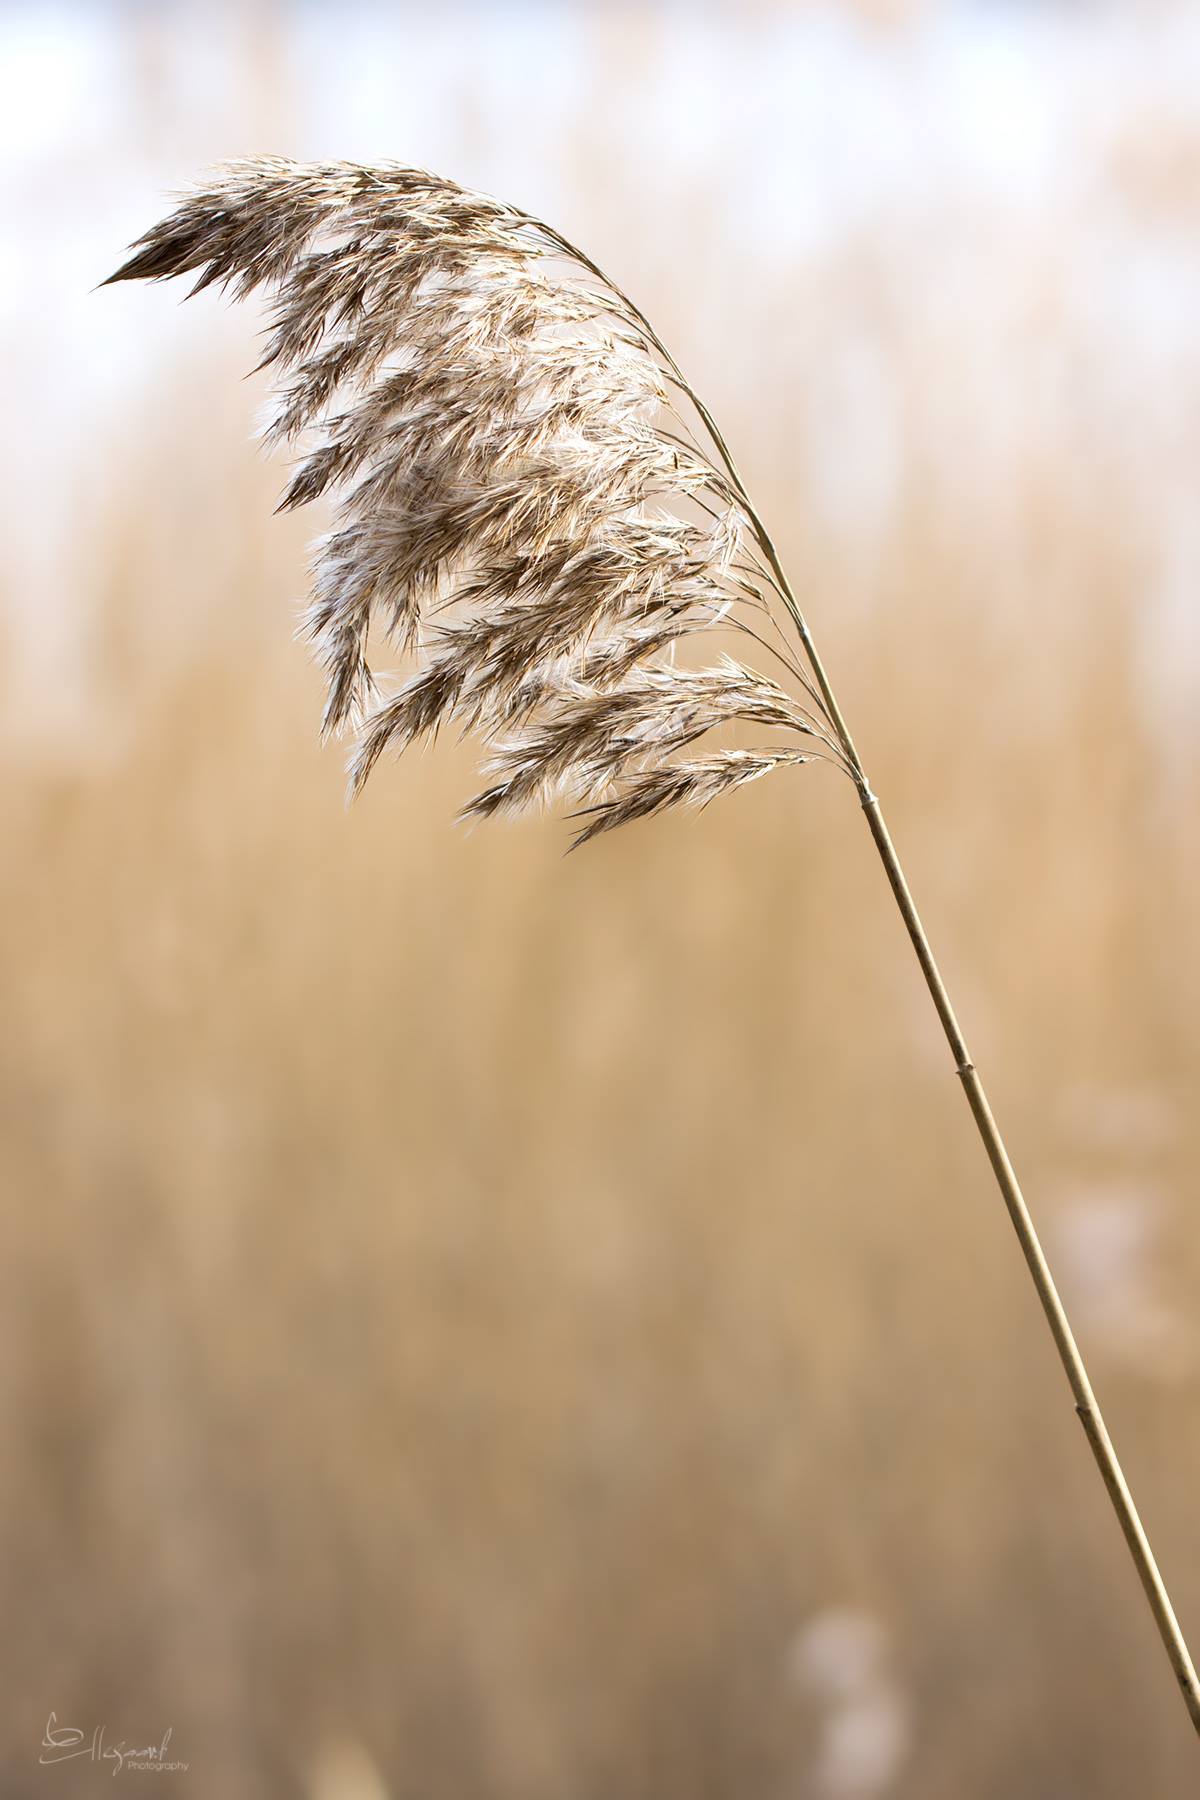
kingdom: Plantae
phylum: Tracheophyta
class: Liliopsida
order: Poales
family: Poaceae
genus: Phragmites
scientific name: Phragmites australis
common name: Common reed
